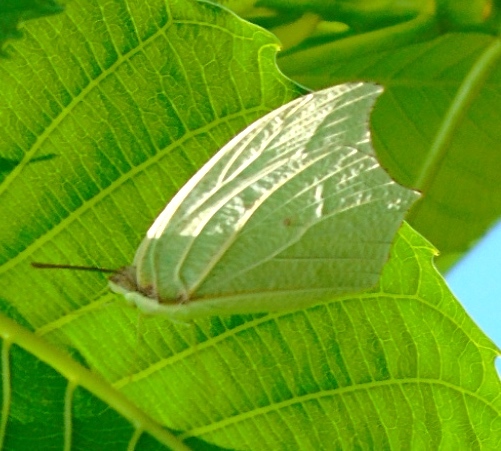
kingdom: Animalia
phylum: Arthropoda
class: Insecta
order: Lepidoptera
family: Pieridae
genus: Anteos
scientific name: Anteos clorinde
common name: White angled sulphur
